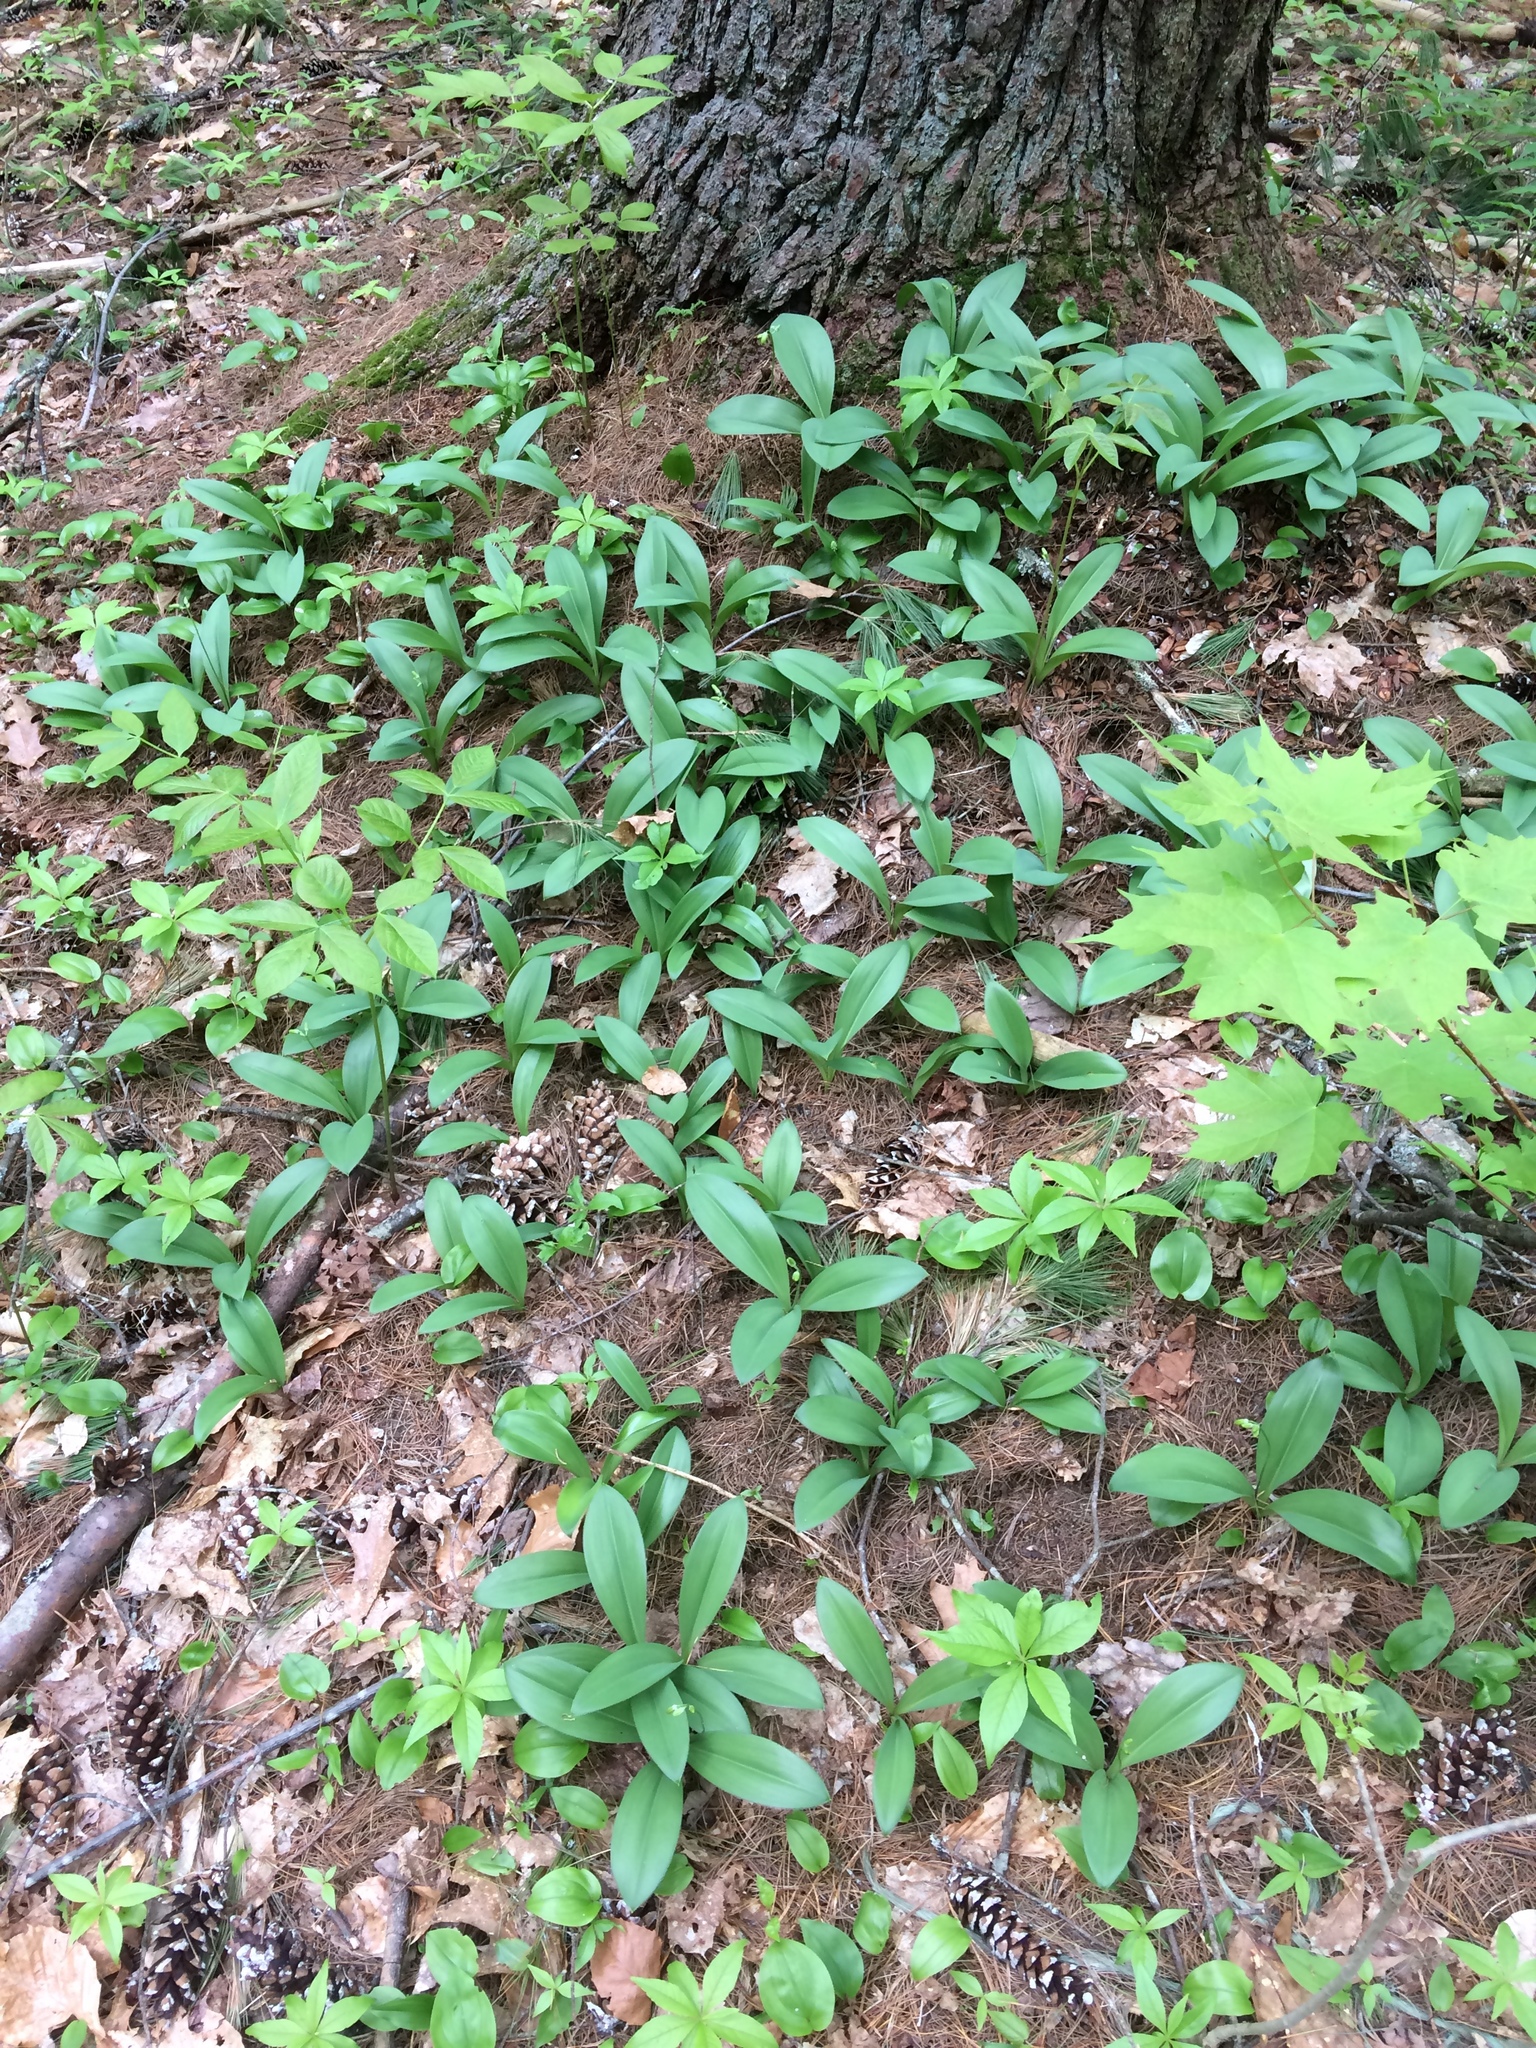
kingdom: Plantae
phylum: Tracheophyta
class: Liliopsida
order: Liliales
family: Liliaceae
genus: Clintonia
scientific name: Clintonia borealis
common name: Yellow clintonia
